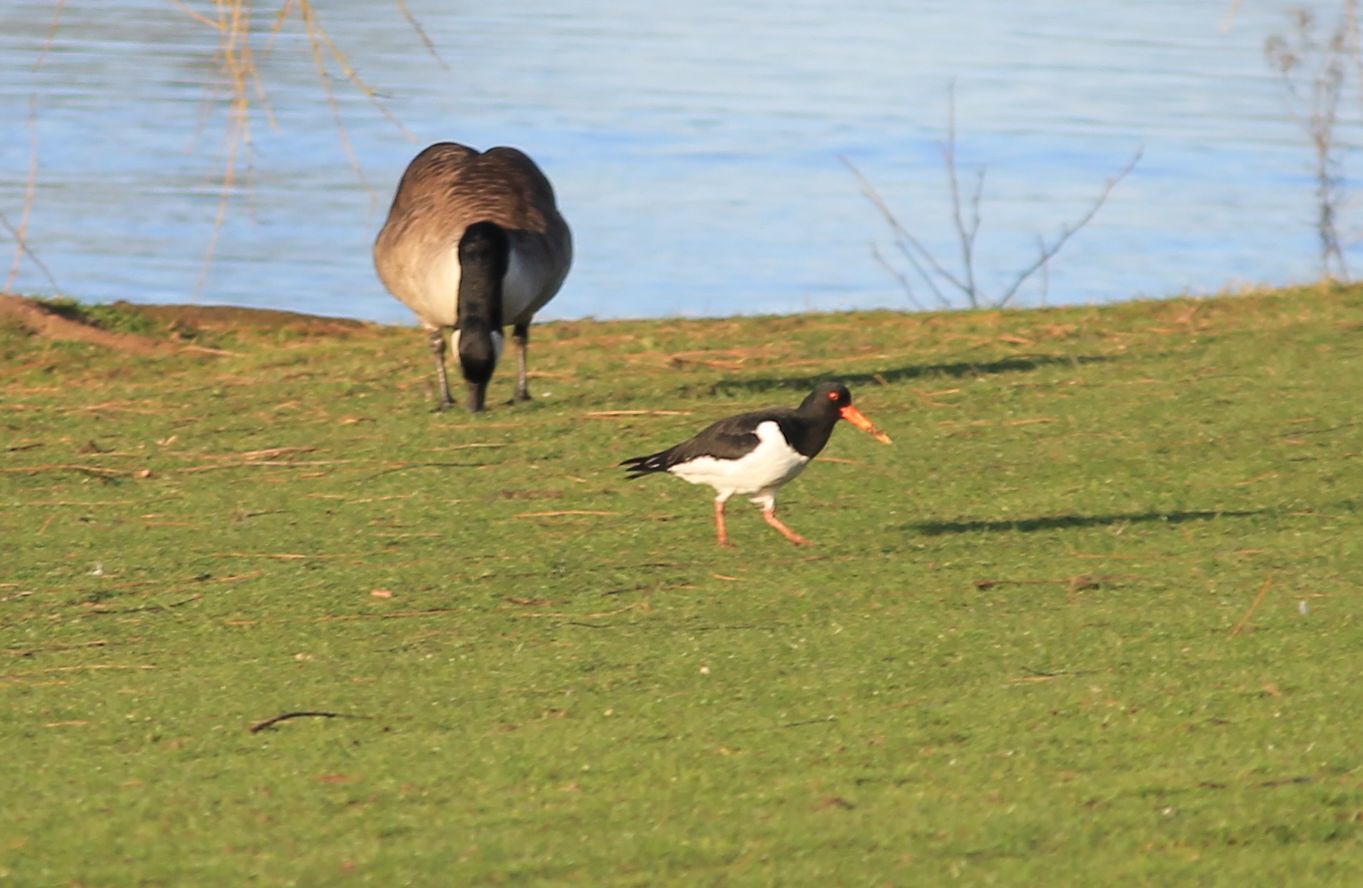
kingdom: Animalia
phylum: Chordata
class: Aves
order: Charadriiformes
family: Haematopodidae
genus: Haematopus
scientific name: Haematopus ostralegus
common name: Eurasian oystercatcher
